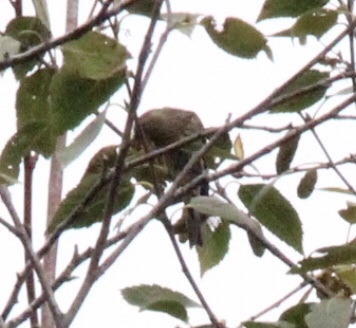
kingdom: Animalia
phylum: Chordata
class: Aves
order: Passeriformes
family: Fringillidae
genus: Spinus
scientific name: Spinus pinus
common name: Pine siskin
